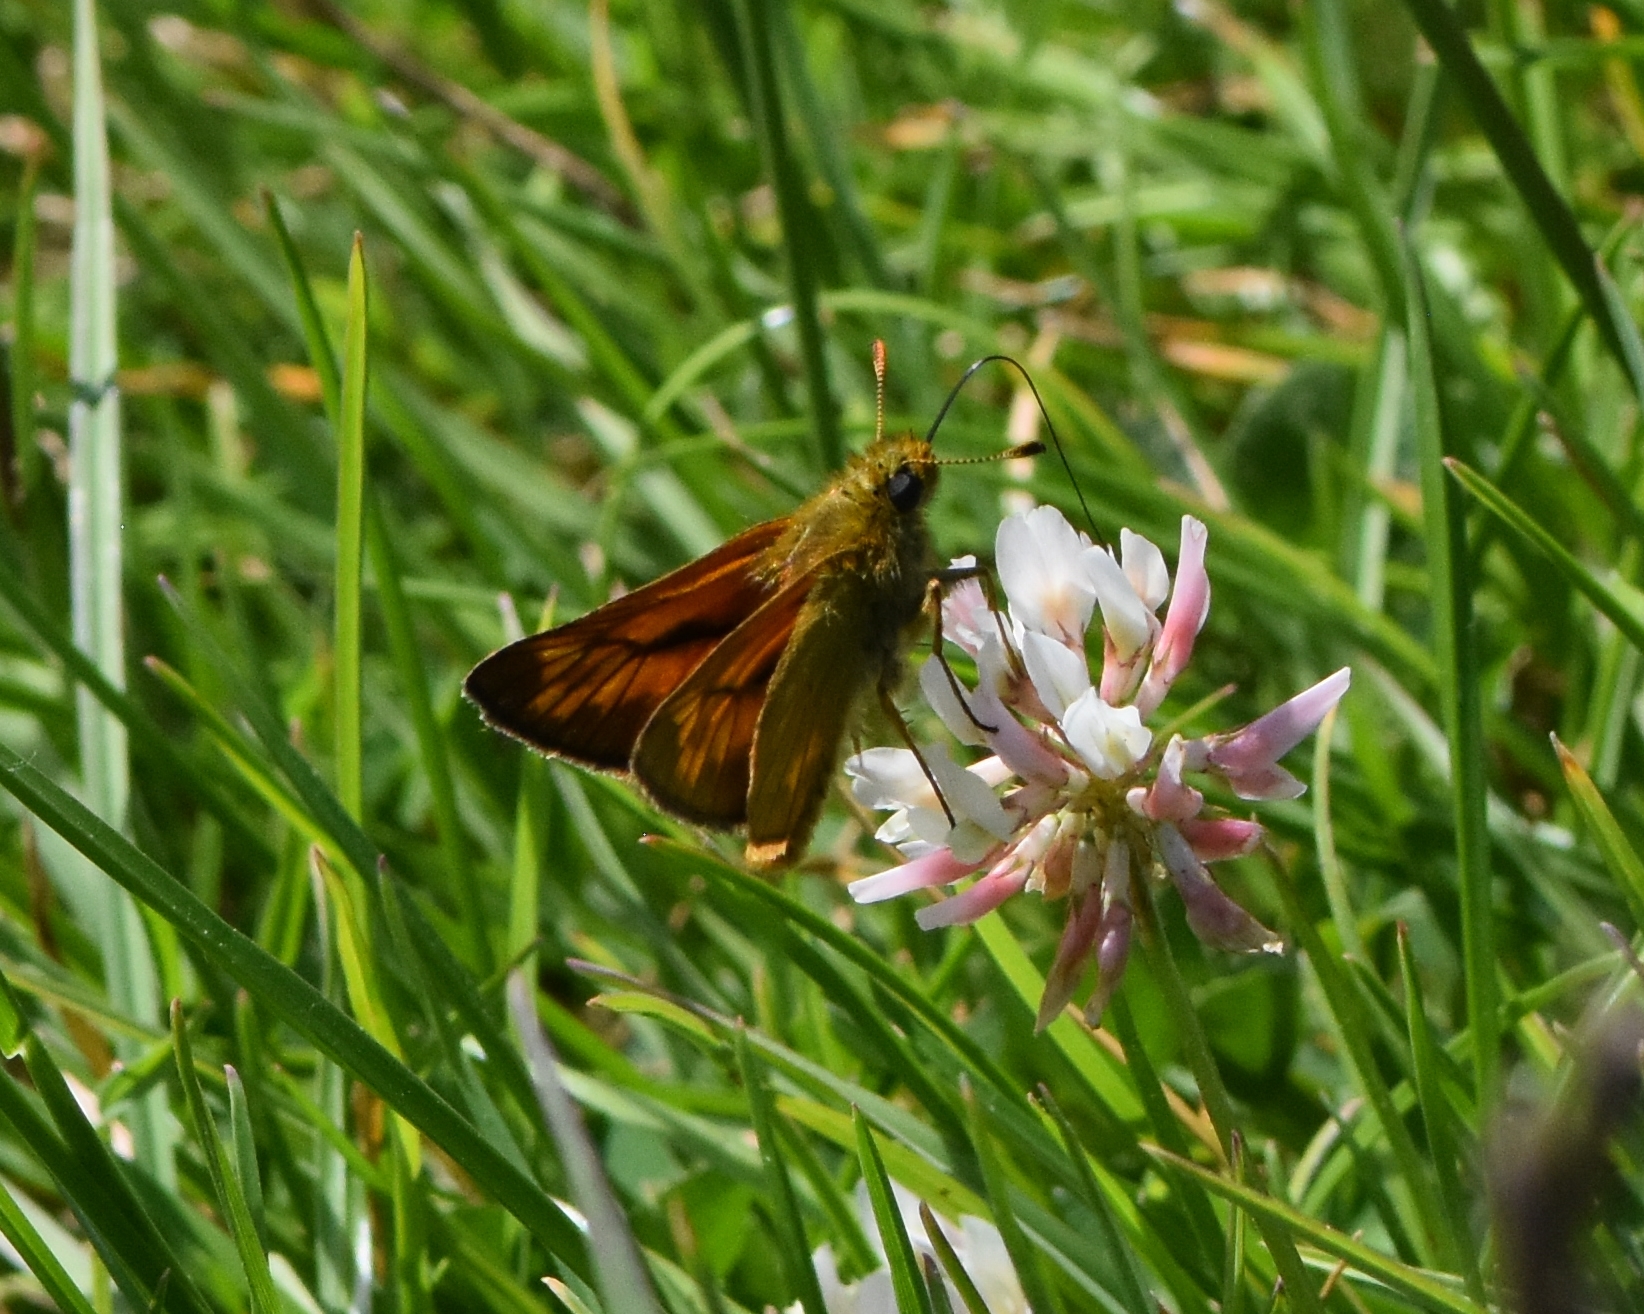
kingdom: Animalia
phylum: Arthropoda
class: Insecta
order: Lepidoptera
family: Hesperiidae
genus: Ochlodes
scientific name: Ochlodes venata
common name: Large skipper
